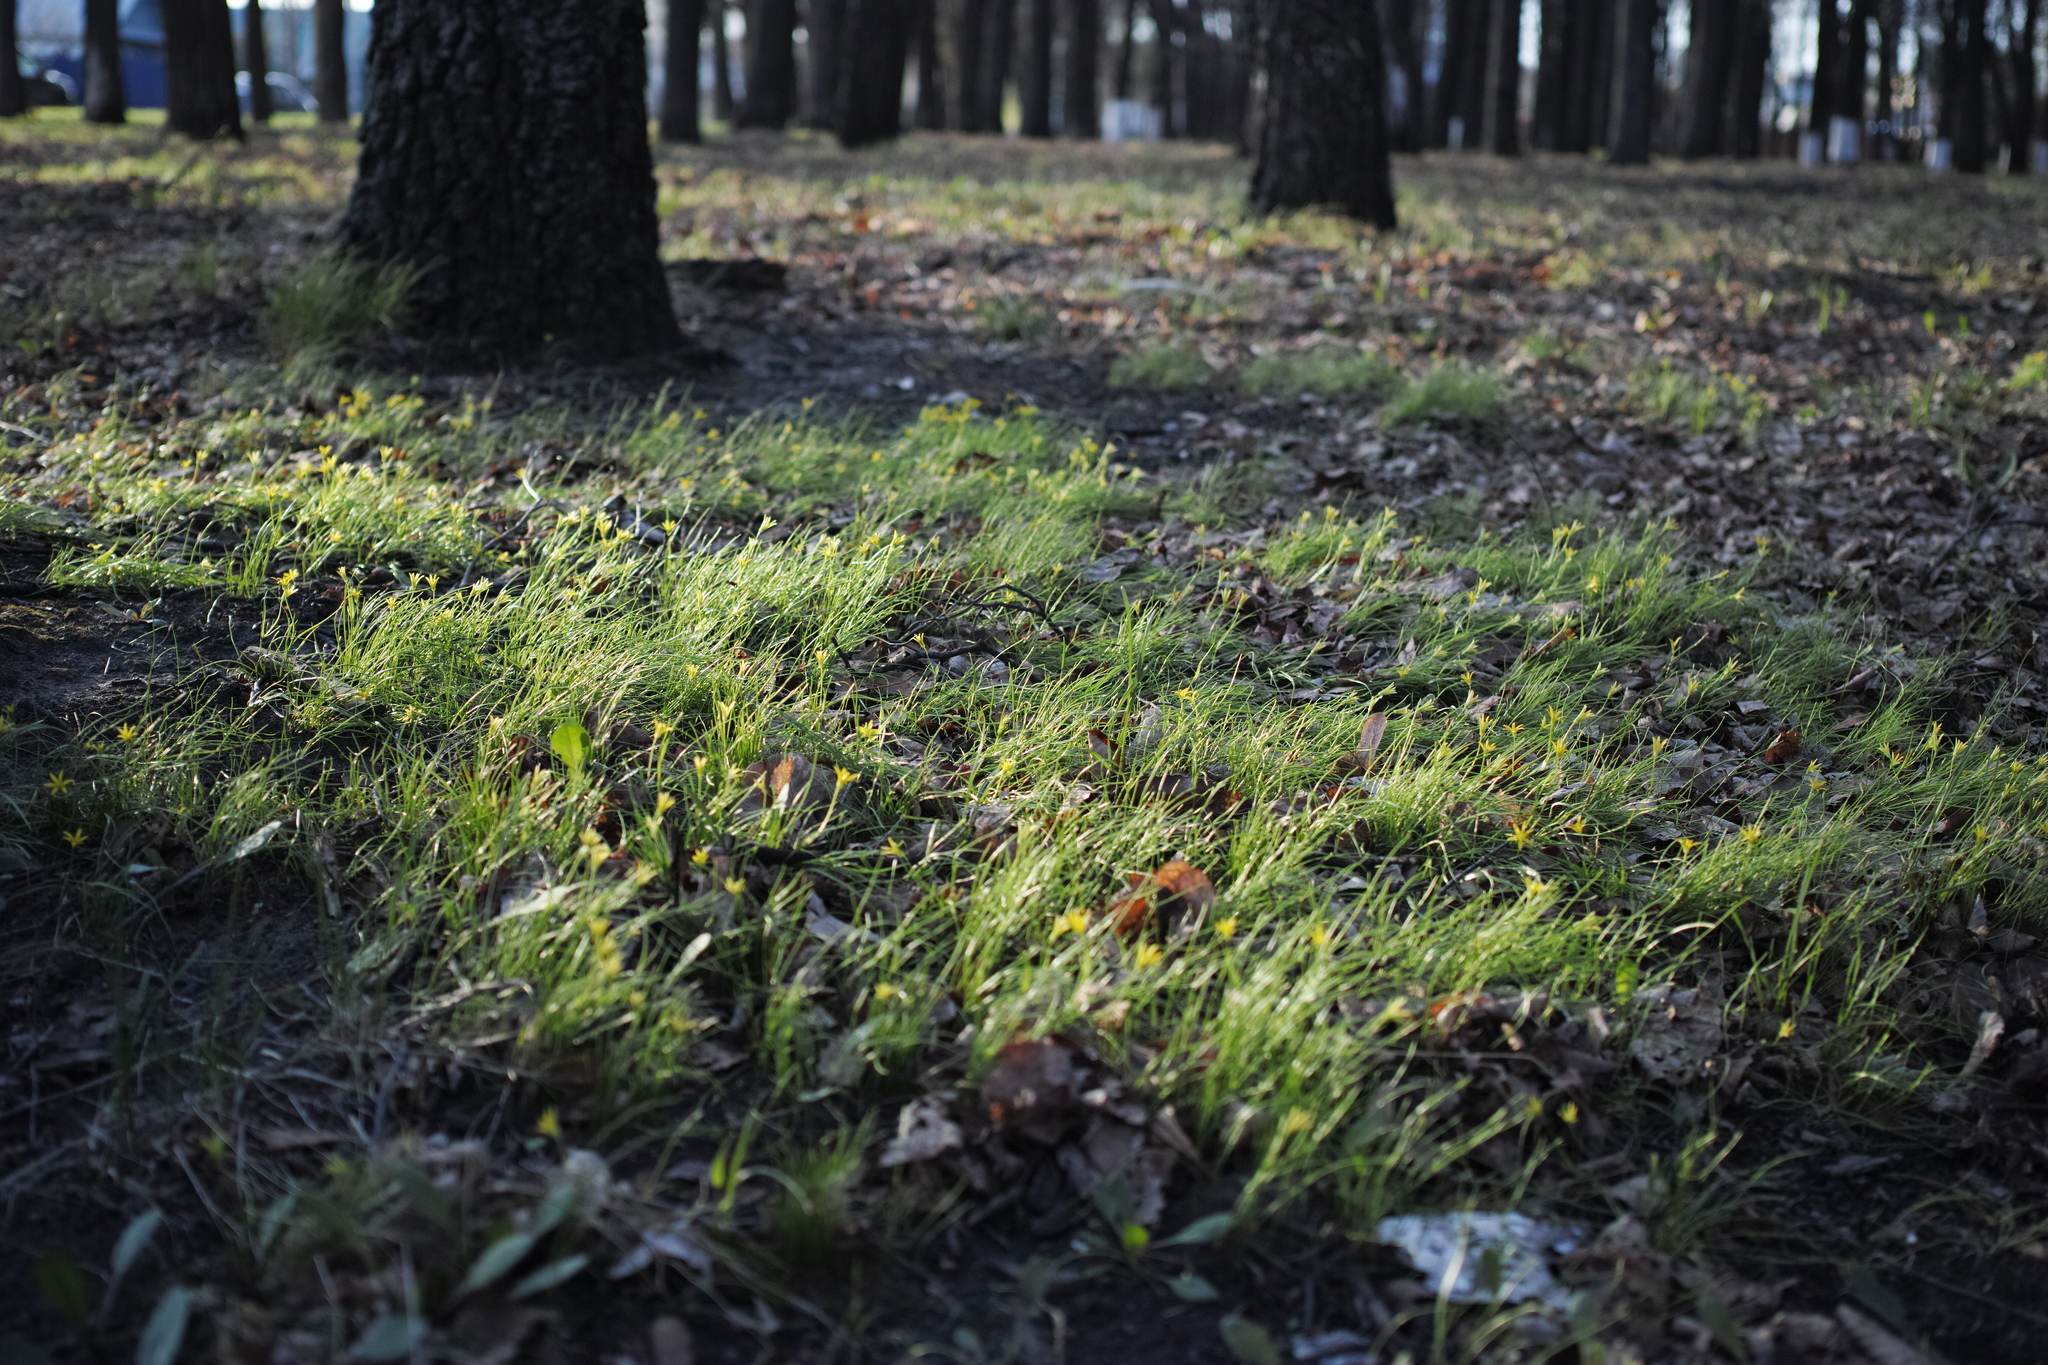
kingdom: Plantae
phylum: Tracheophyta
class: Liliopsida
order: Liliales
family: Liliaceae
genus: Gagea
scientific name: Gagea minima
